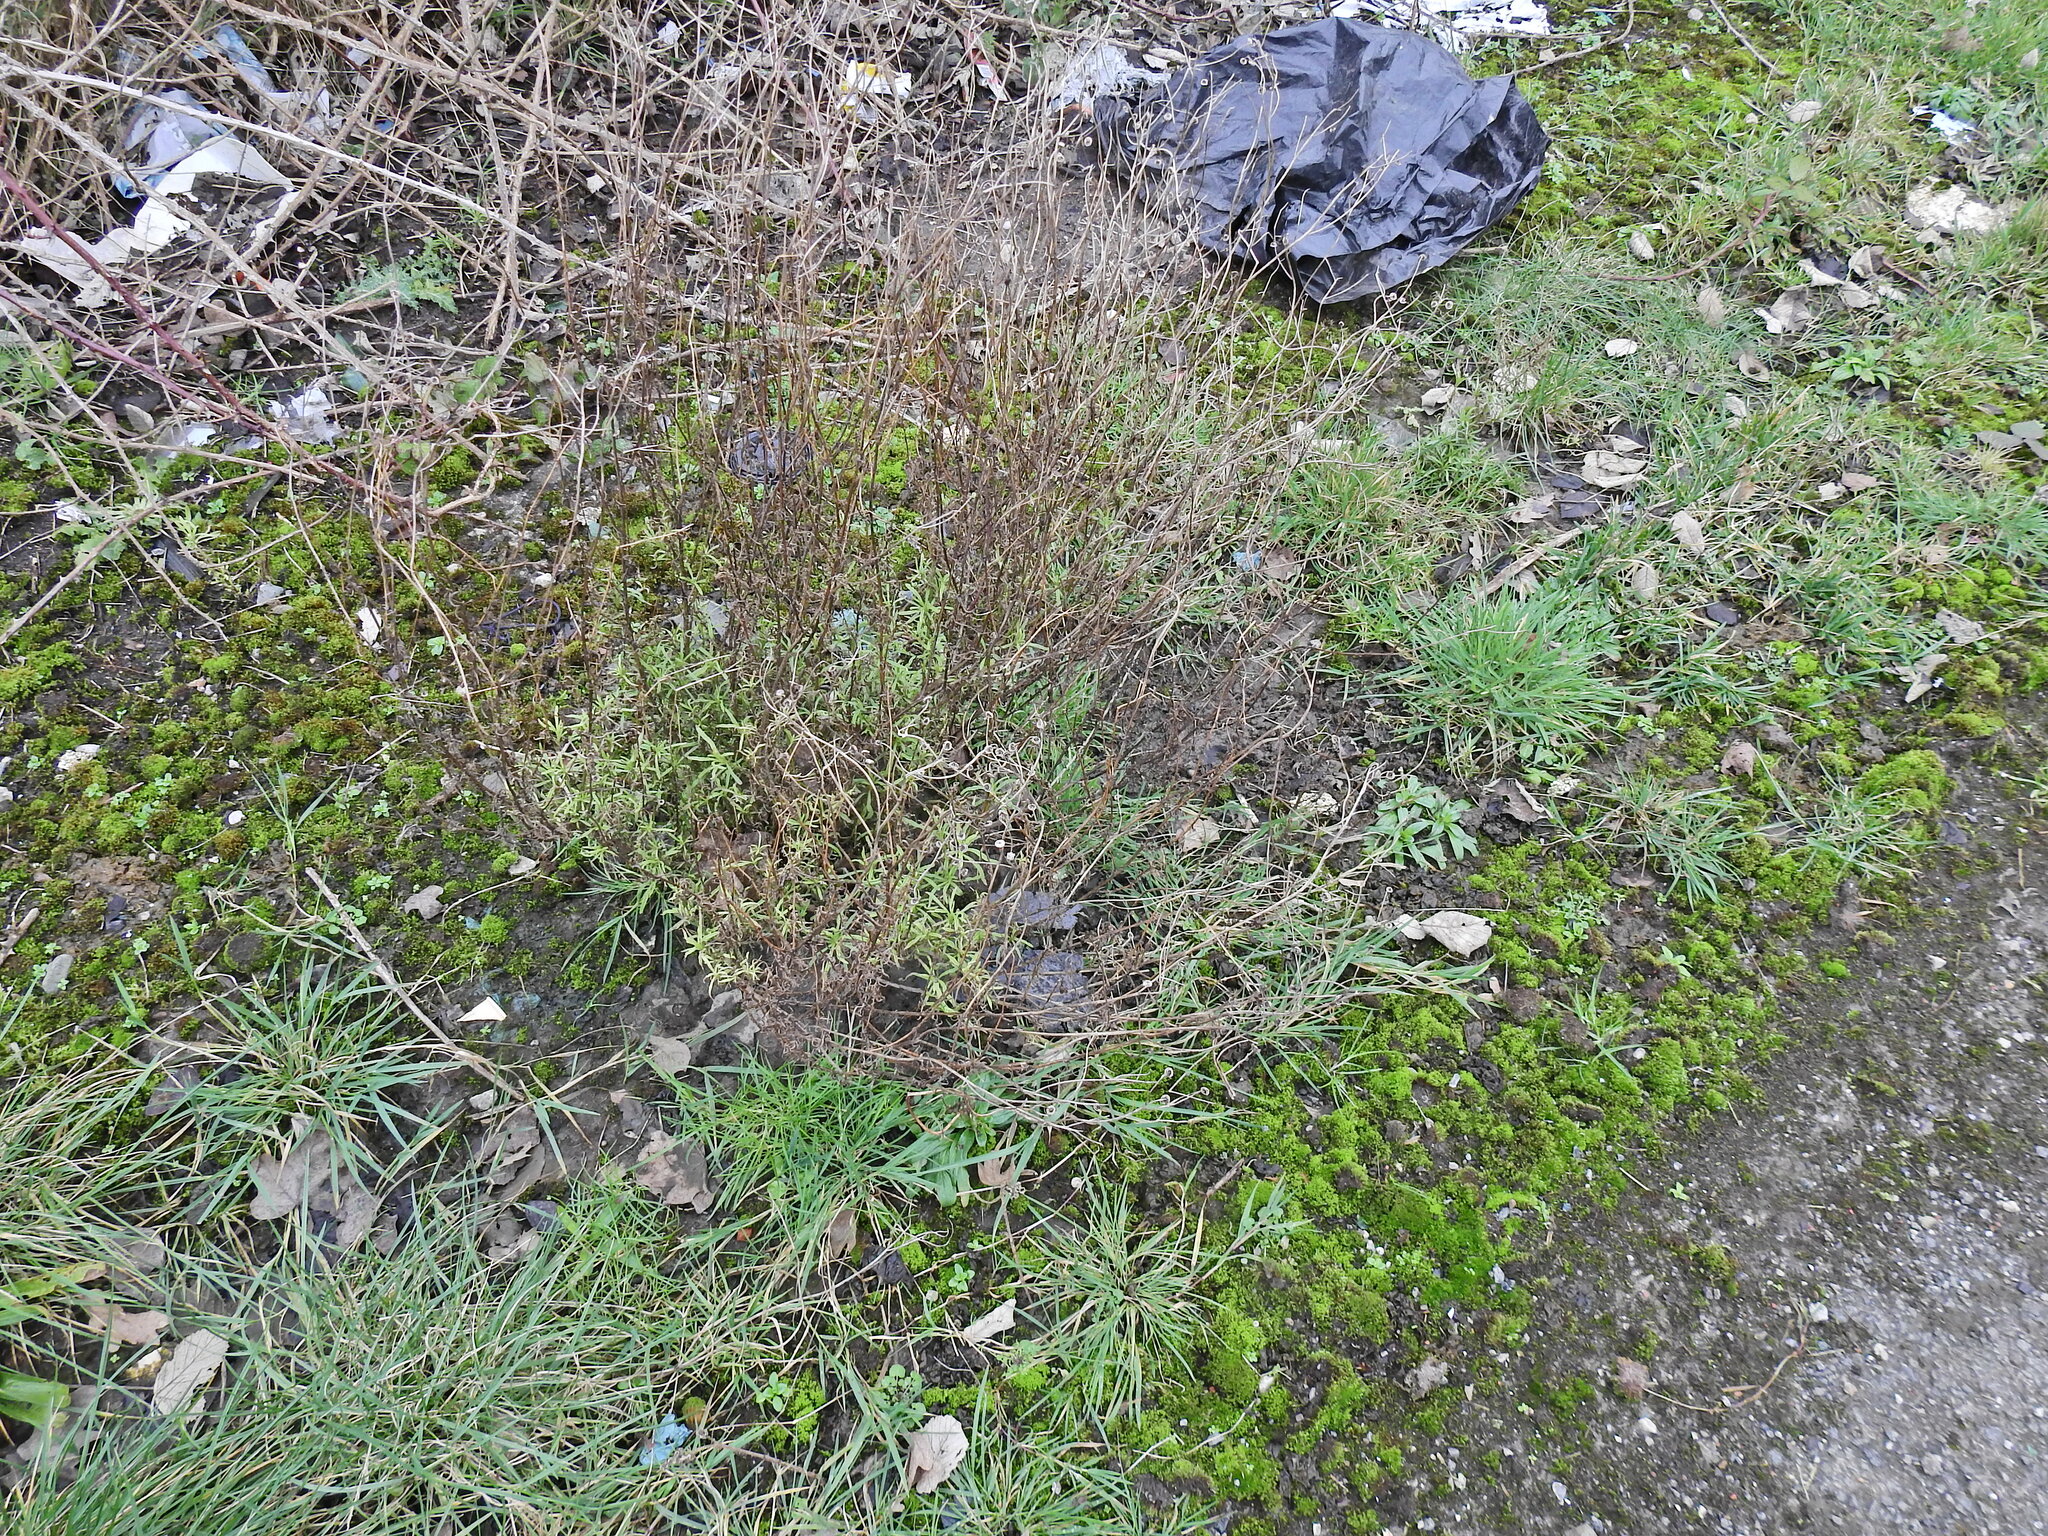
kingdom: Plantae
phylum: Tracheophyta
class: Magnoliopsida
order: Asterales
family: Asteraceae
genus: Senecio
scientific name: Senecio inaequidens
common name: Narrow-leaved ragwort
